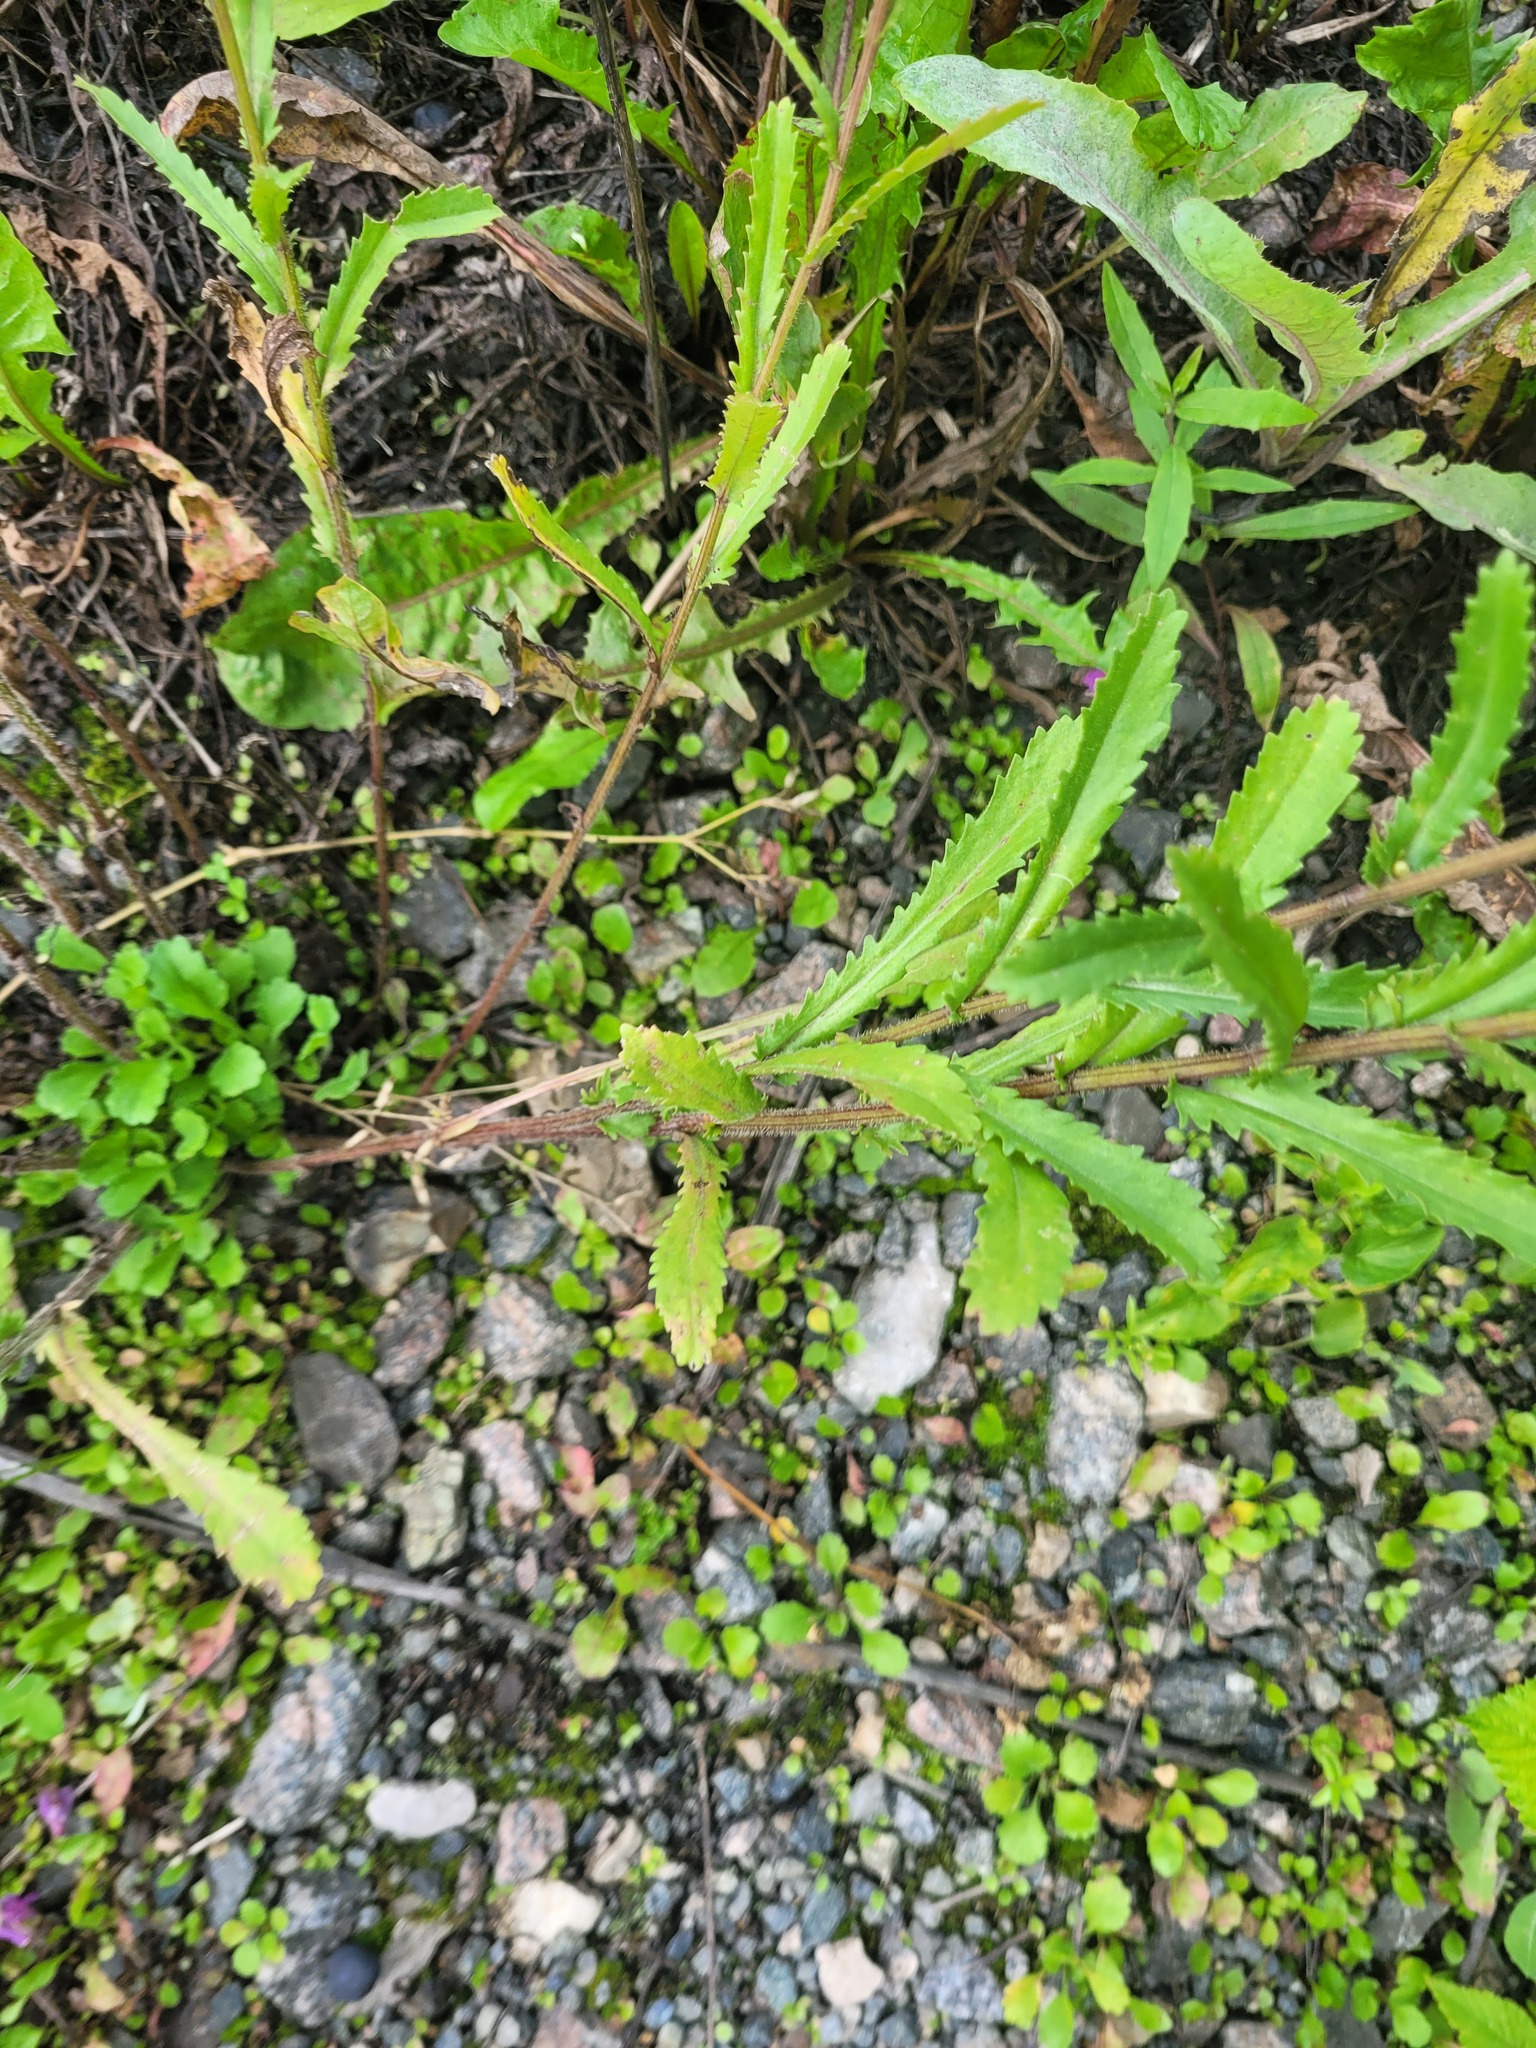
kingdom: Plantae
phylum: Tracheophyta
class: Magnoliopsida
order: Asterales
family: Asteraceae
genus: Leucanthemum
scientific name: Leucanthemum vulgare
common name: Oxeye daisy
